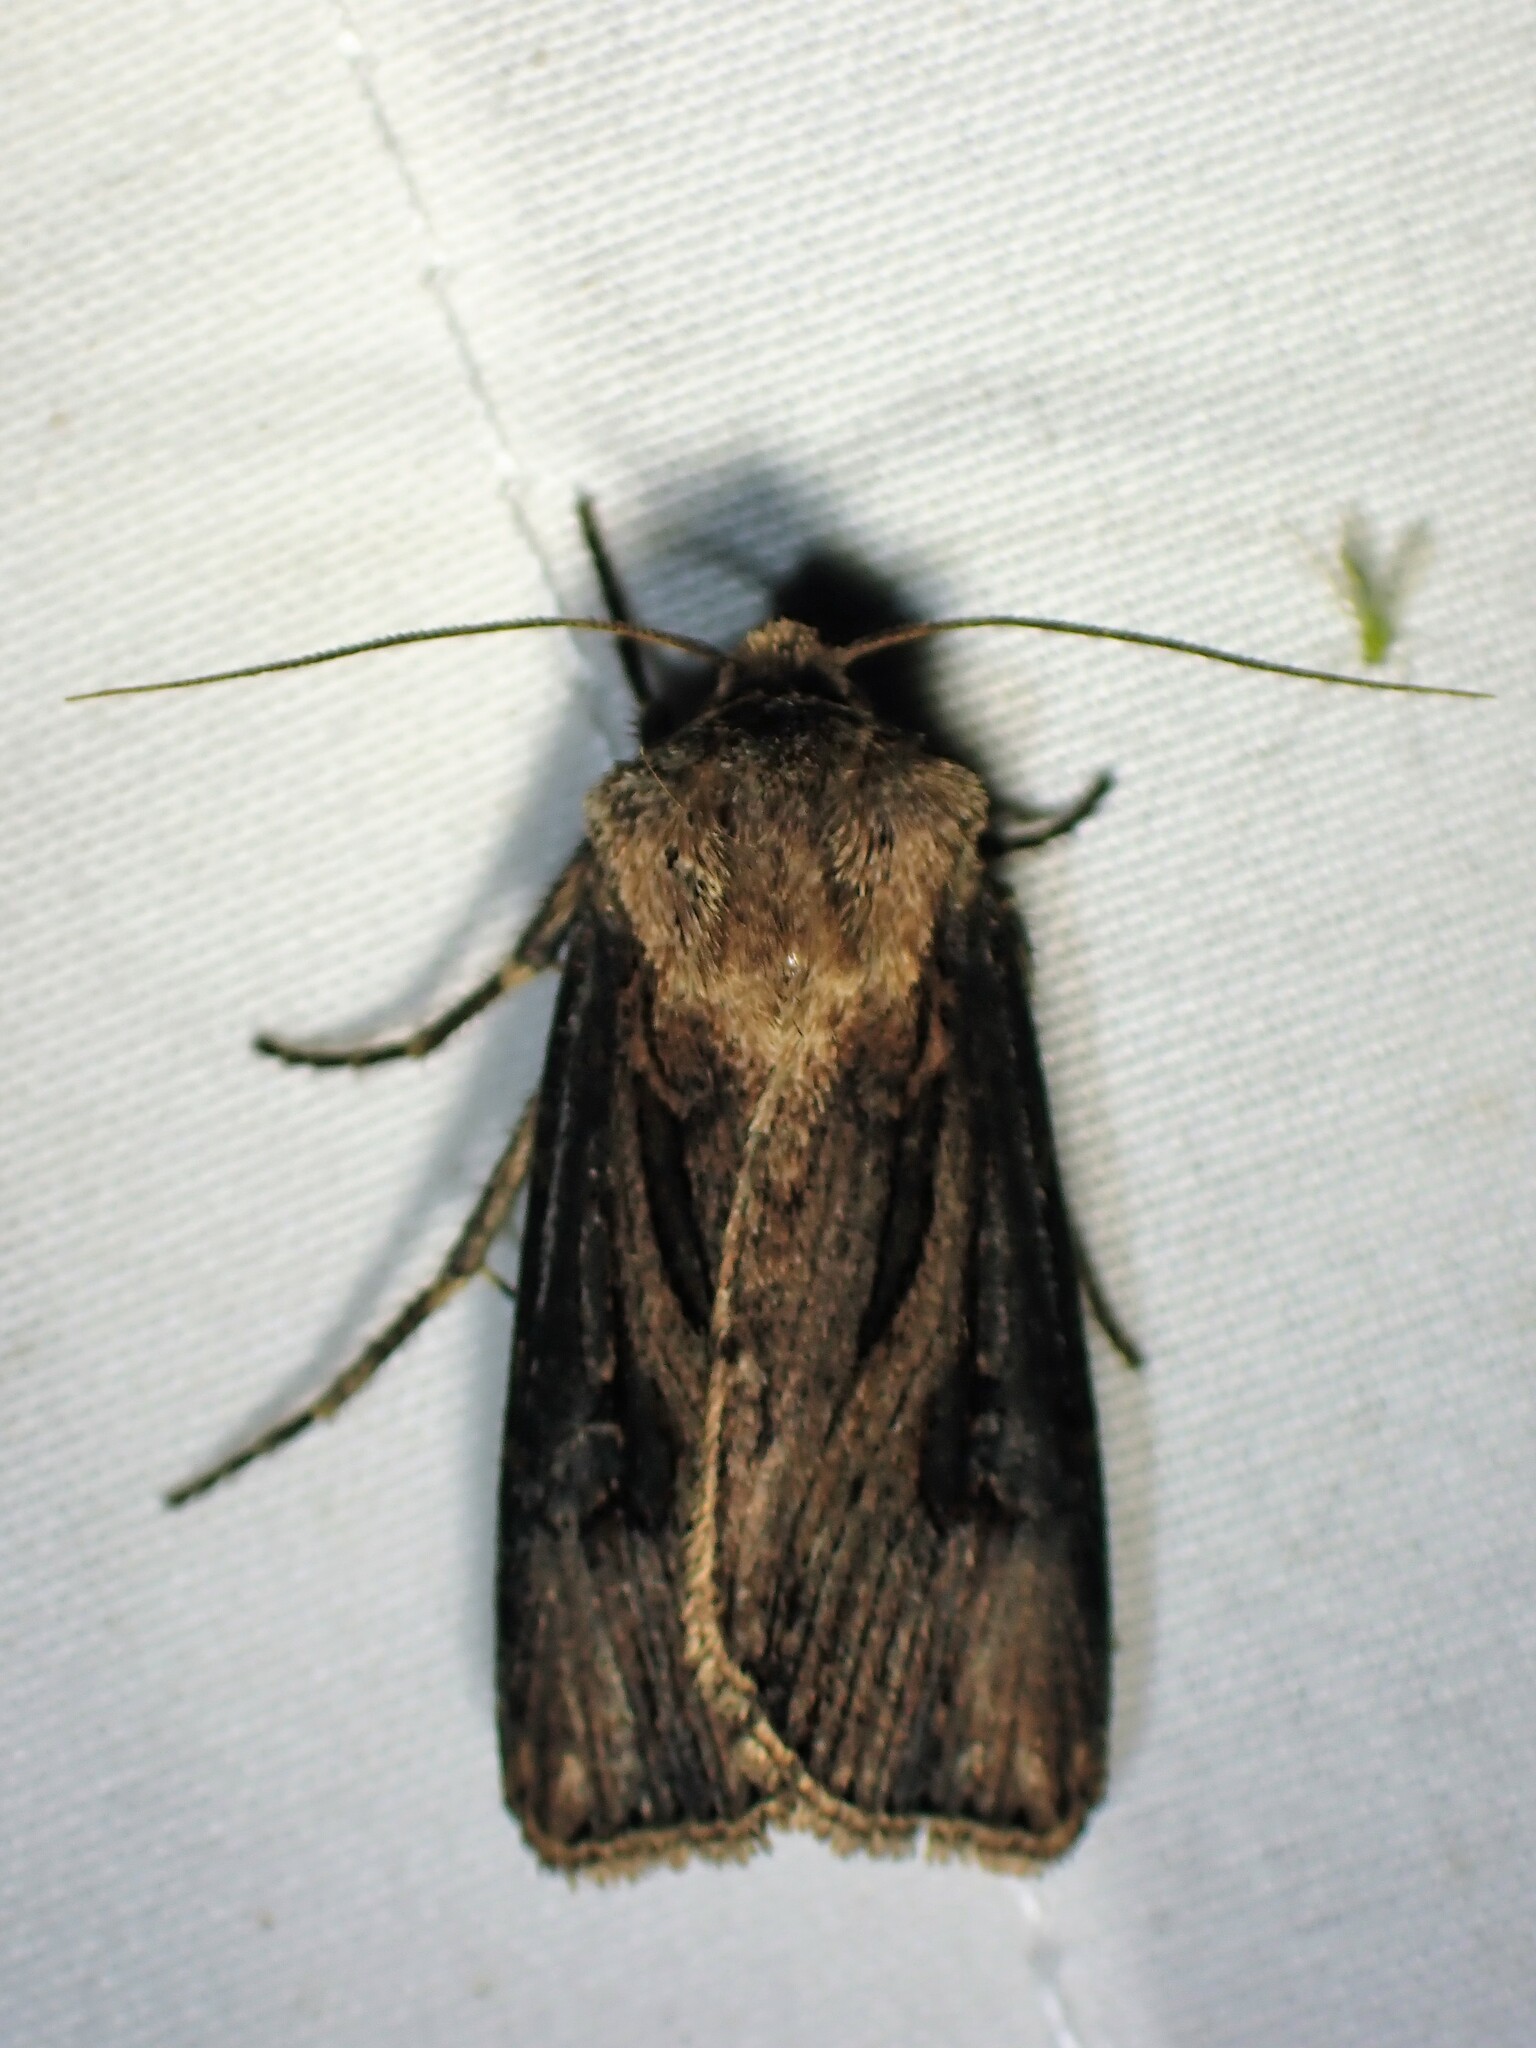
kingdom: Animalia
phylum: Arthropoda
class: Insecta
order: Lepidoptera
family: Noctuidae
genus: Agrotis
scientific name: Agrotis venerabilis
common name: Venerable dart
